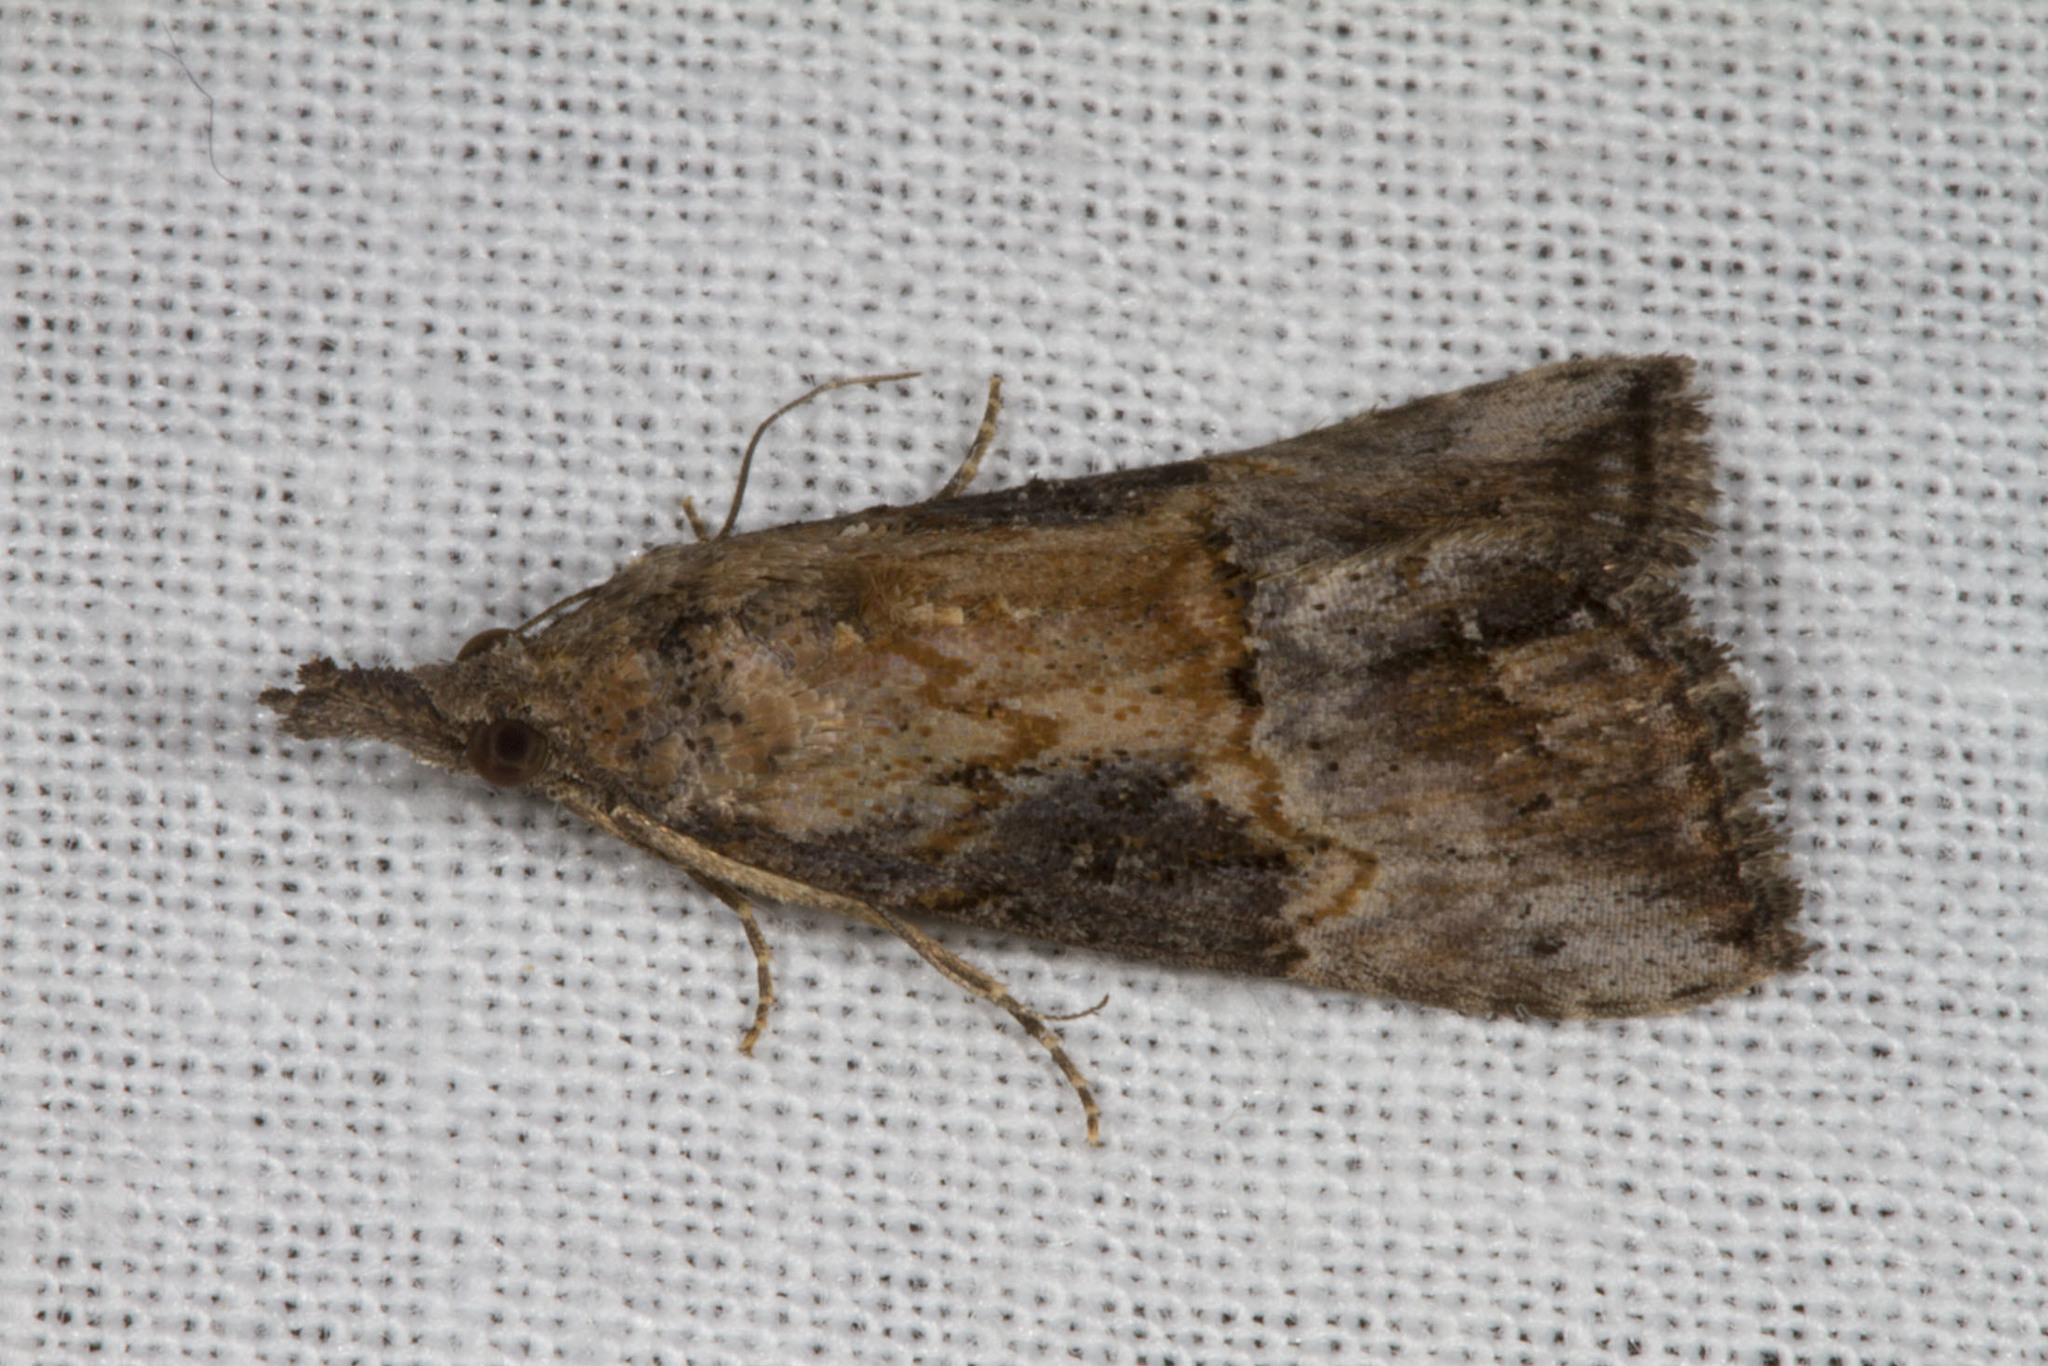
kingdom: Animalia
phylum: Arthropoda
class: Insecta
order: Lepidoptera
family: Erebidae
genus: Hypena
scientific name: Hypena scabra
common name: Green cloverworm
